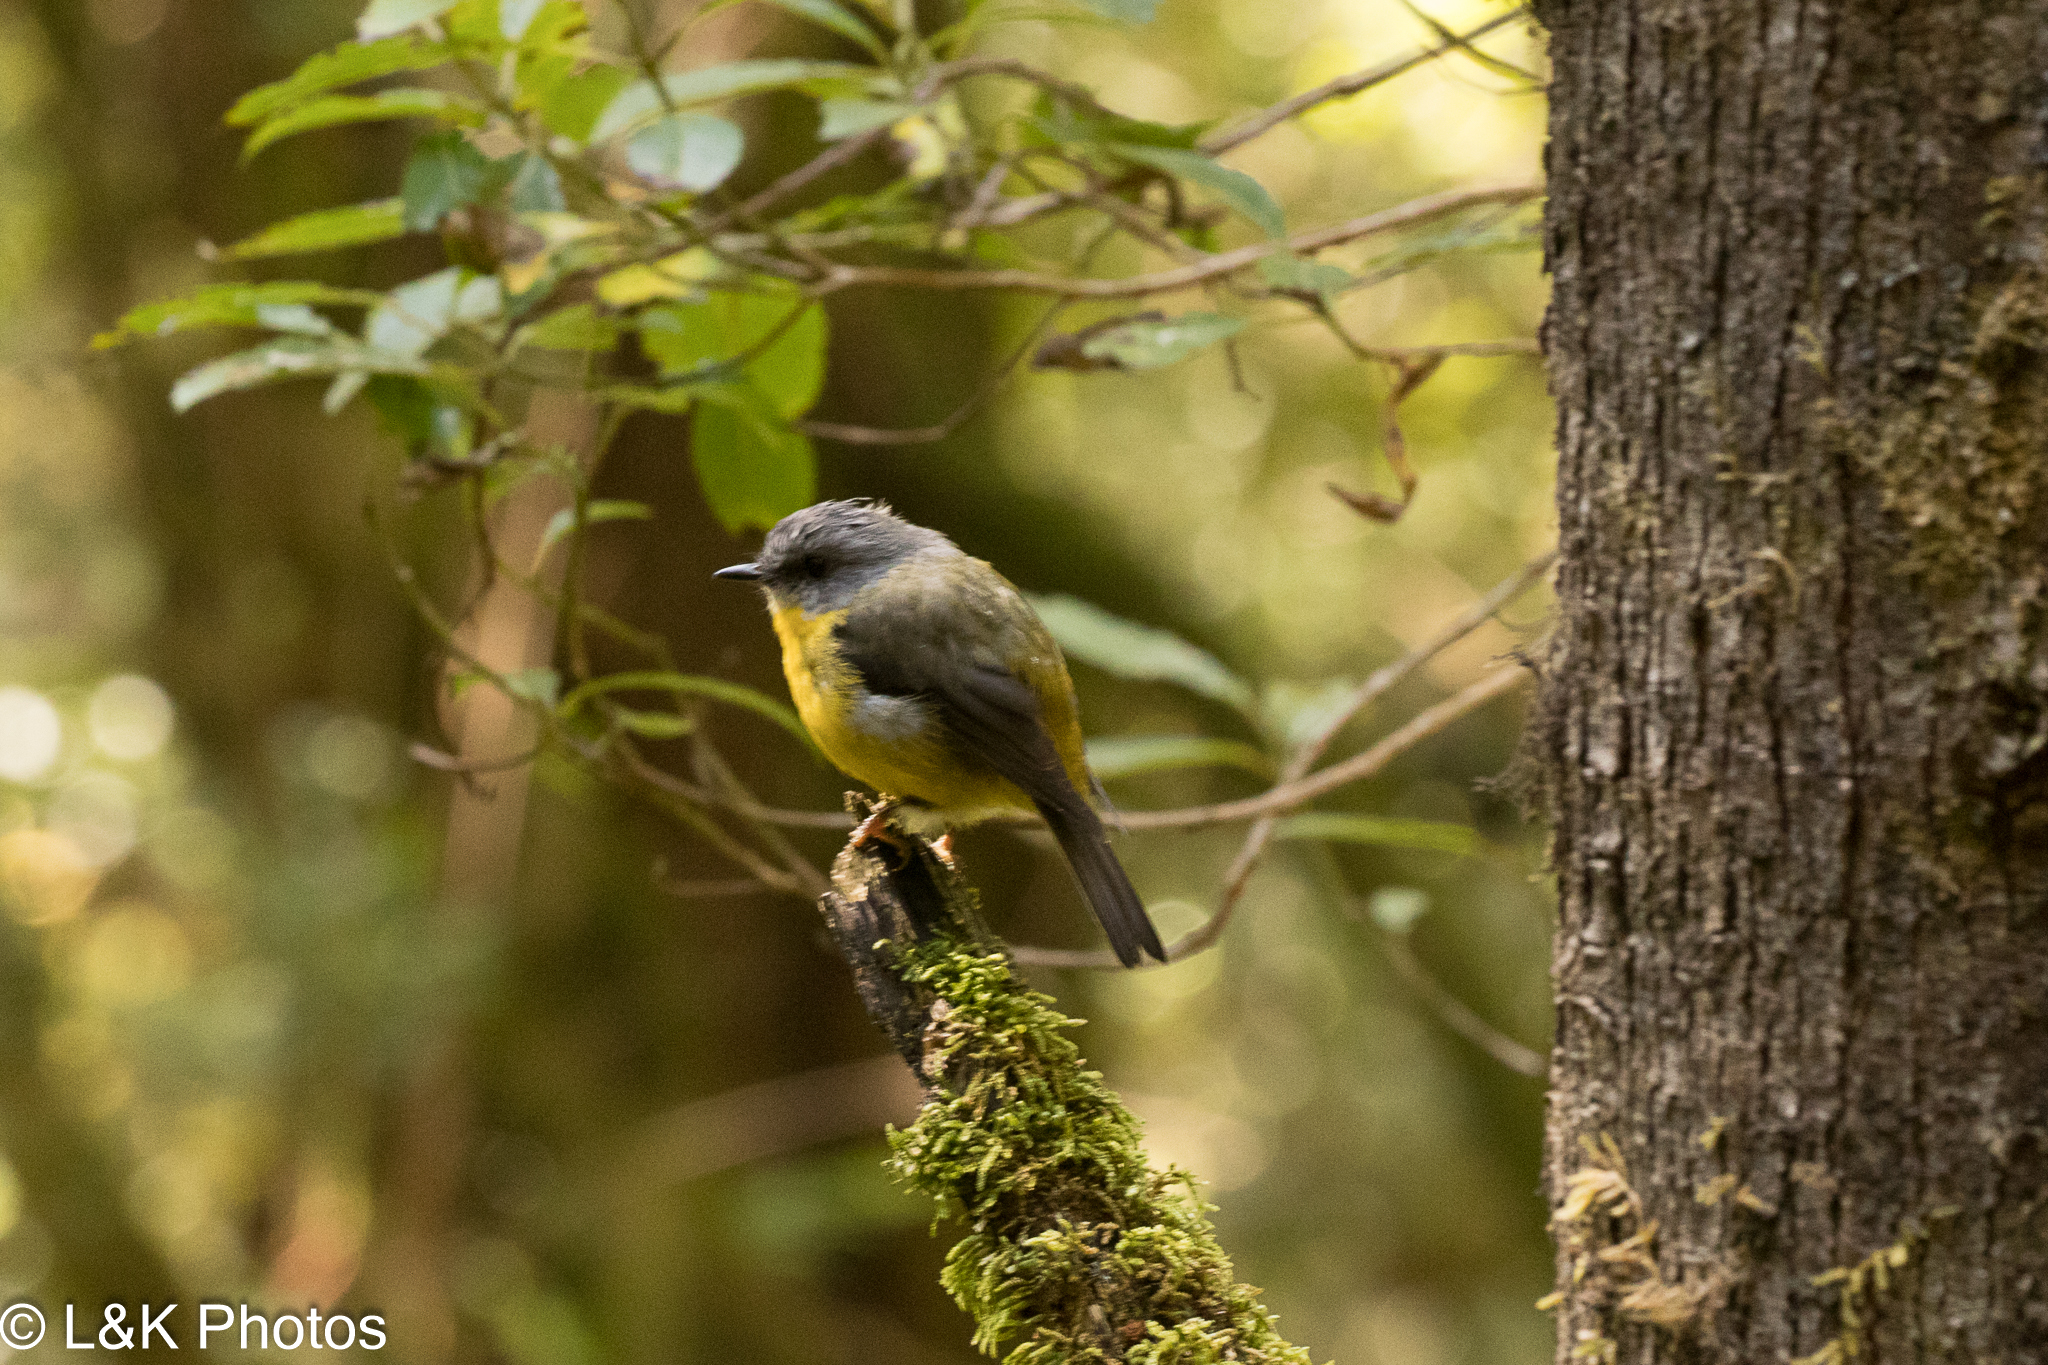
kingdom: Animalia
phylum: Chordata
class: Aves
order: Passeriformes
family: Petroicidae
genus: Eopsaltria
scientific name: Eopsaltria australis
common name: Eastern yellow robin
